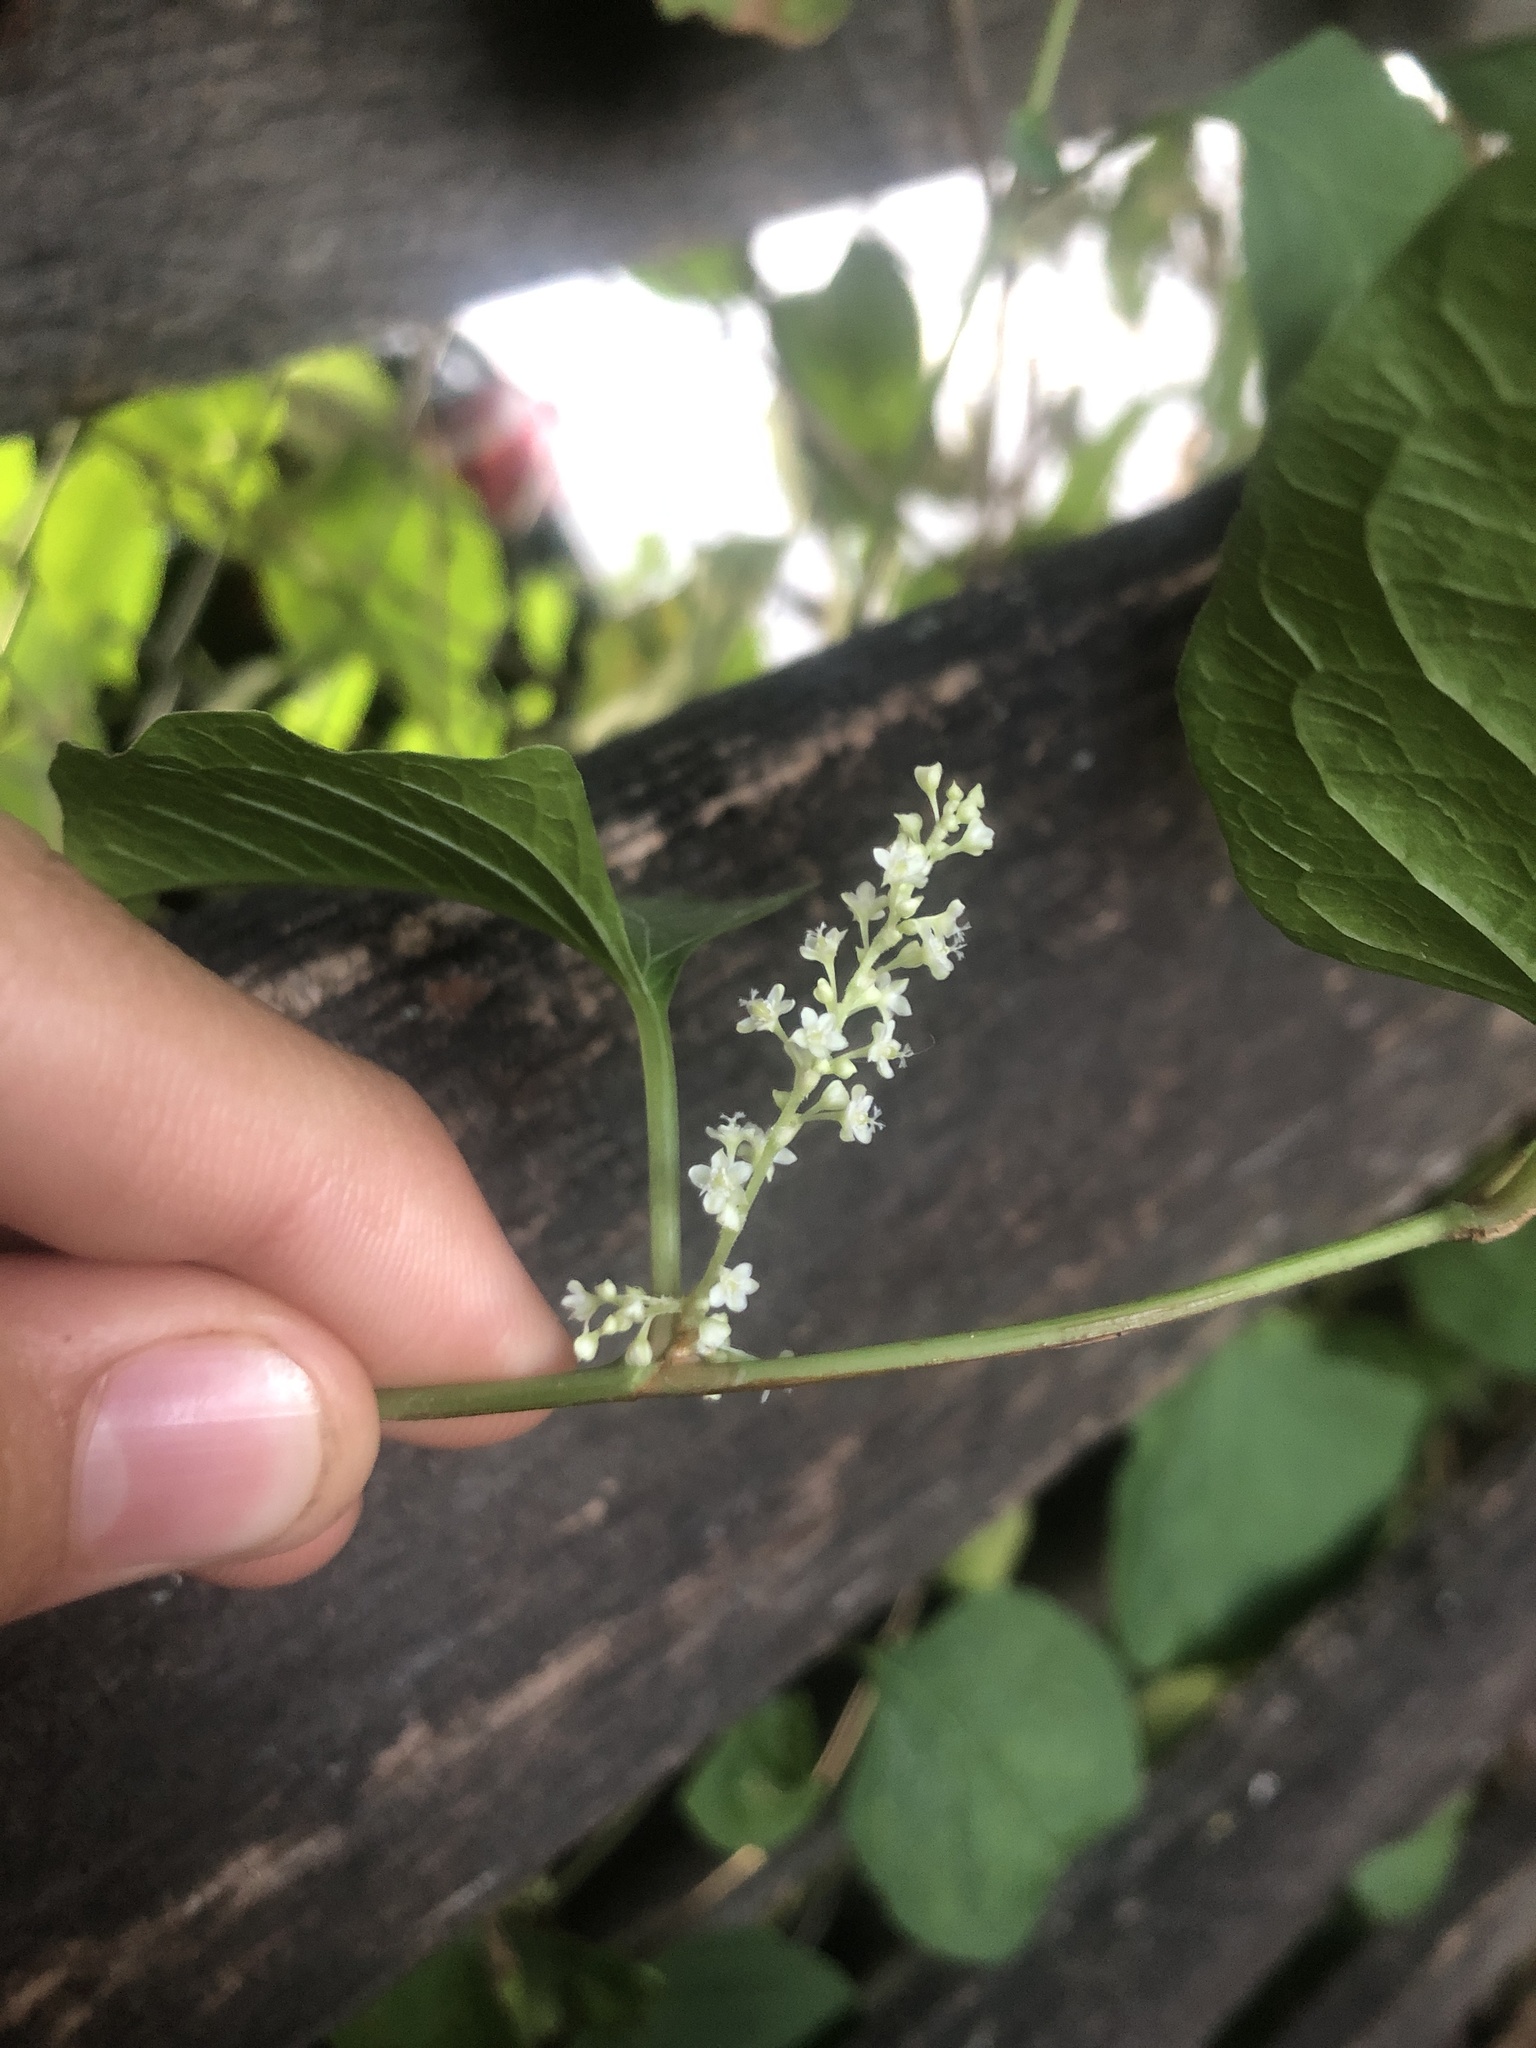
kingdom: Plantae
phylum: Tracheophyta
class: Magnoliopsida
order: Caryophyllales
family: Polygonaceae
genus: Reynoutria
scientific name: Reynoutria japonica
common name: Japanese knotweed
